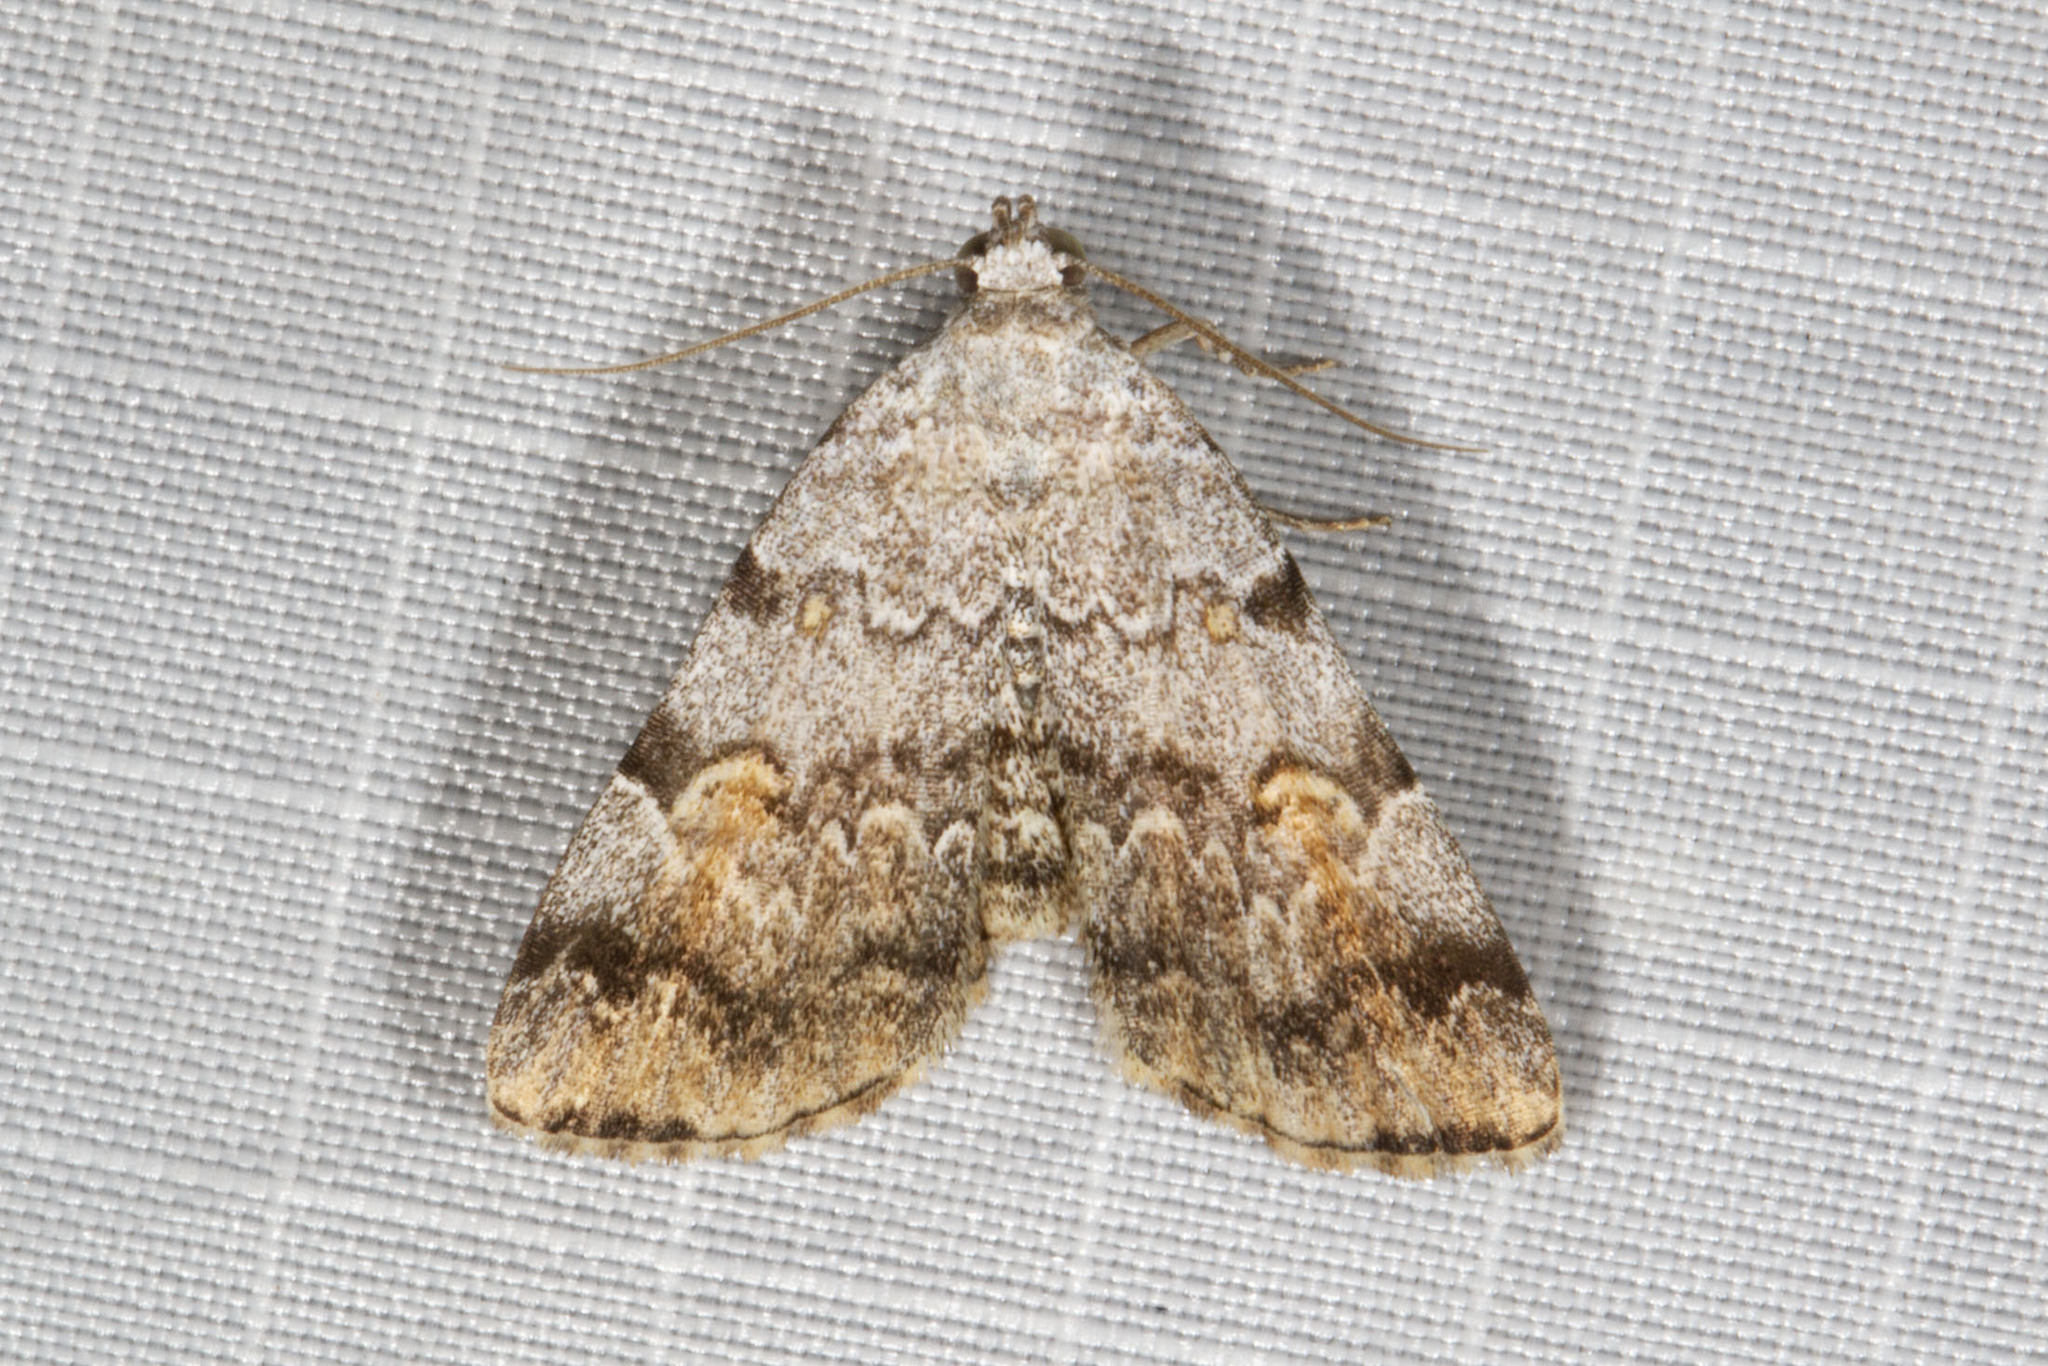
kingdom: Animalia
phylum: Arthropoda
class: Insecta
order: Lepidoptera
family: Erebidae
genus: Idia
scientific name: Idia americalis
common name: American idia moth
